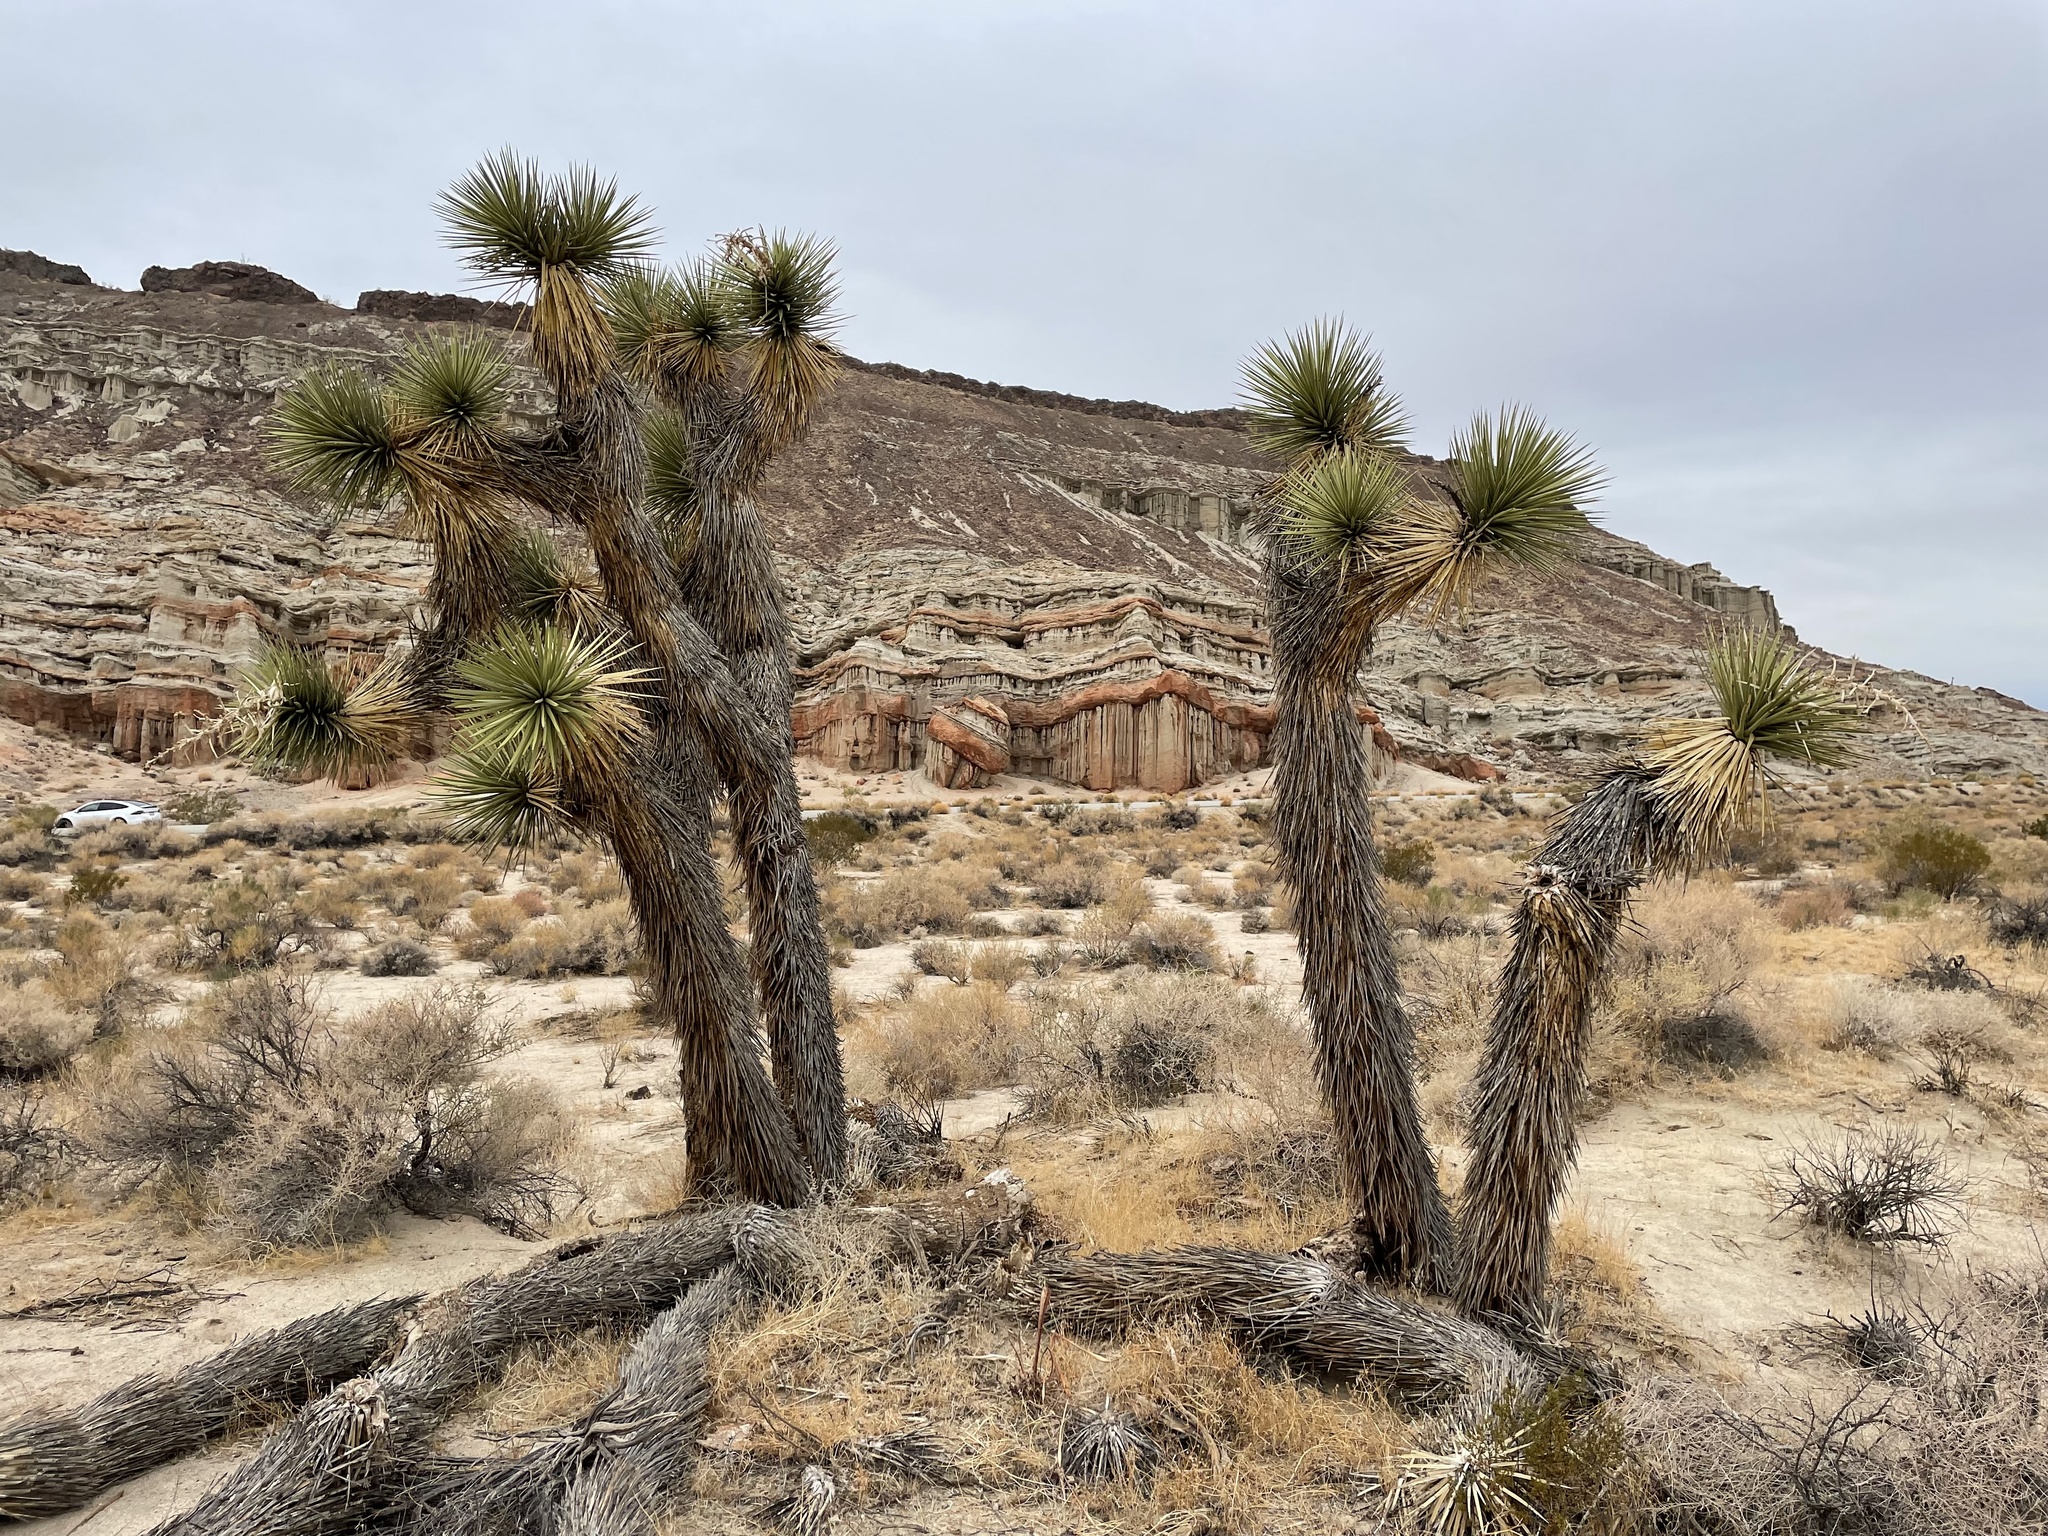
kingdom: Plantae
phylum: Tracheophyta
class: Liliopsida
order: Asparagales
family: Asparagaceae
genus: Yucca
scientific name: Yucca brevifolia
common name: Joshua tree
